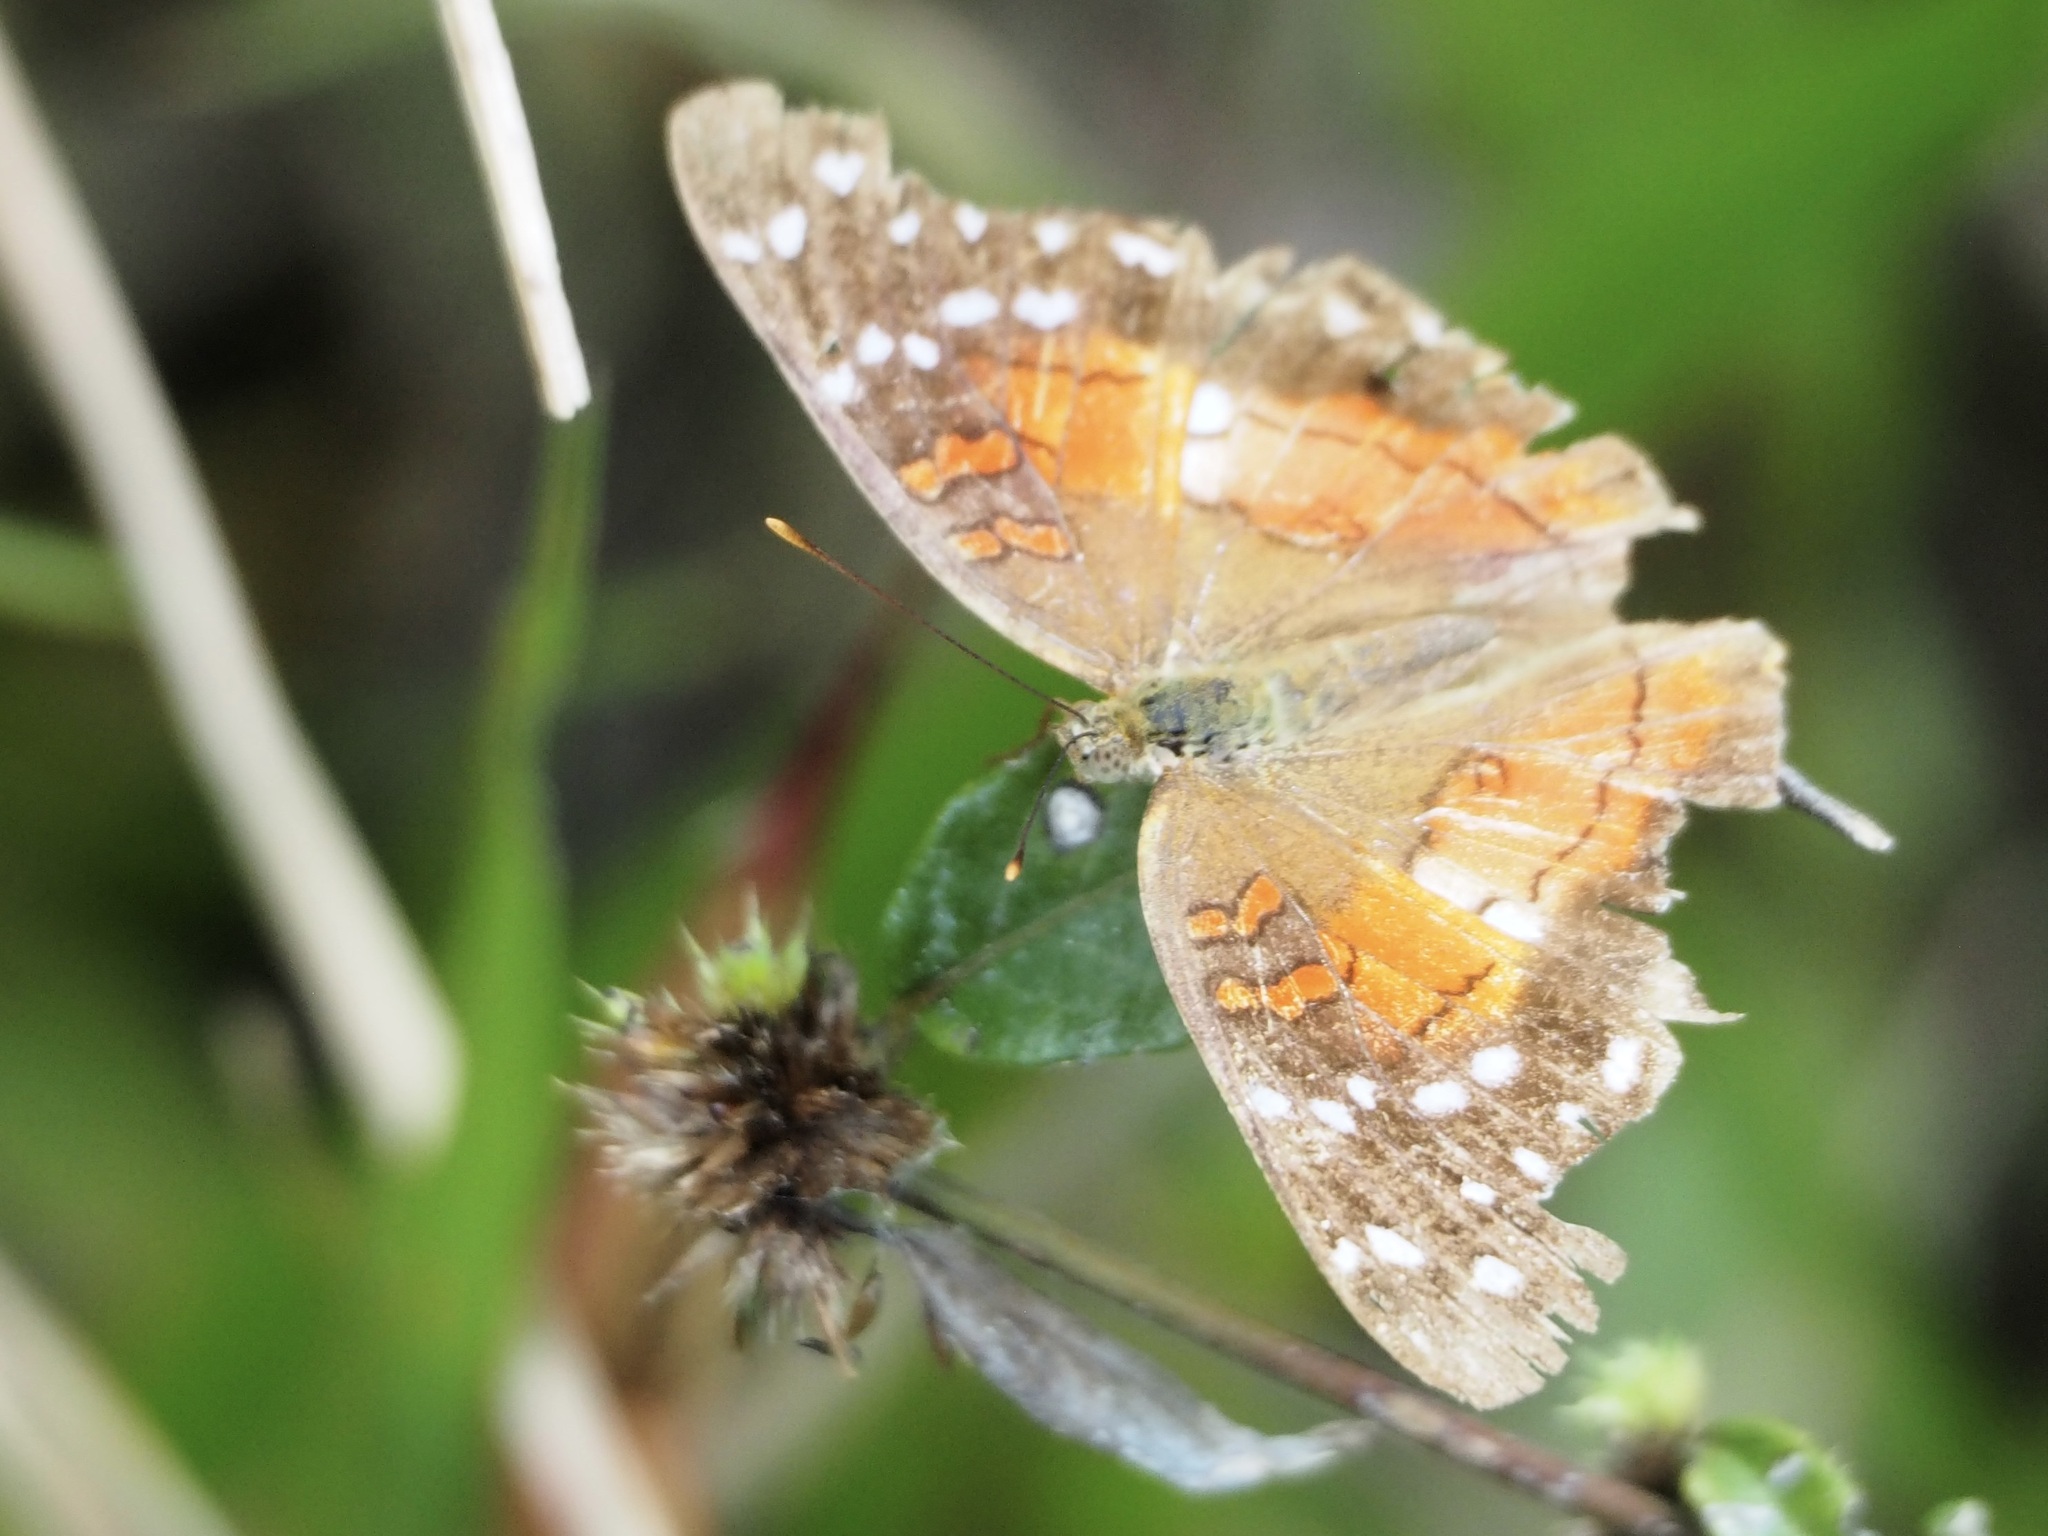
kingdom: Animalia
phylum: Arthropoda
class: Insecta
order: Lepidoptera
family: Nymphalidae
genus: Anartia
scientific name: Anartia amathea
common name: Red peacock
